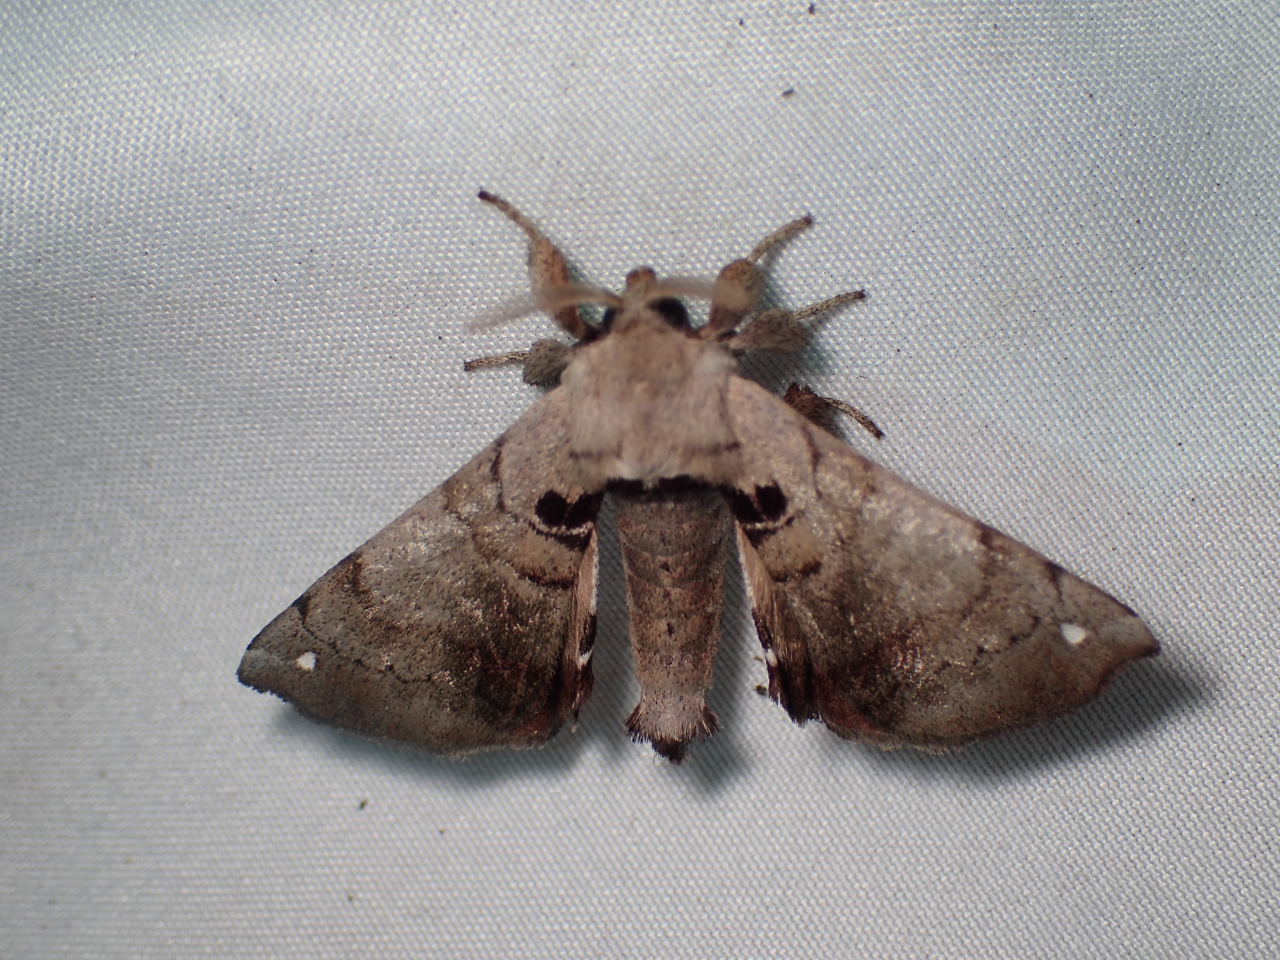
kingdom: Animalia
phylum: Arthropoda
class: Insecta
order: Lepidoptera
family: Apatelodidae
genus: Hygrochroa
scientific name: Hygrochroa Apatelodes torrefacta
